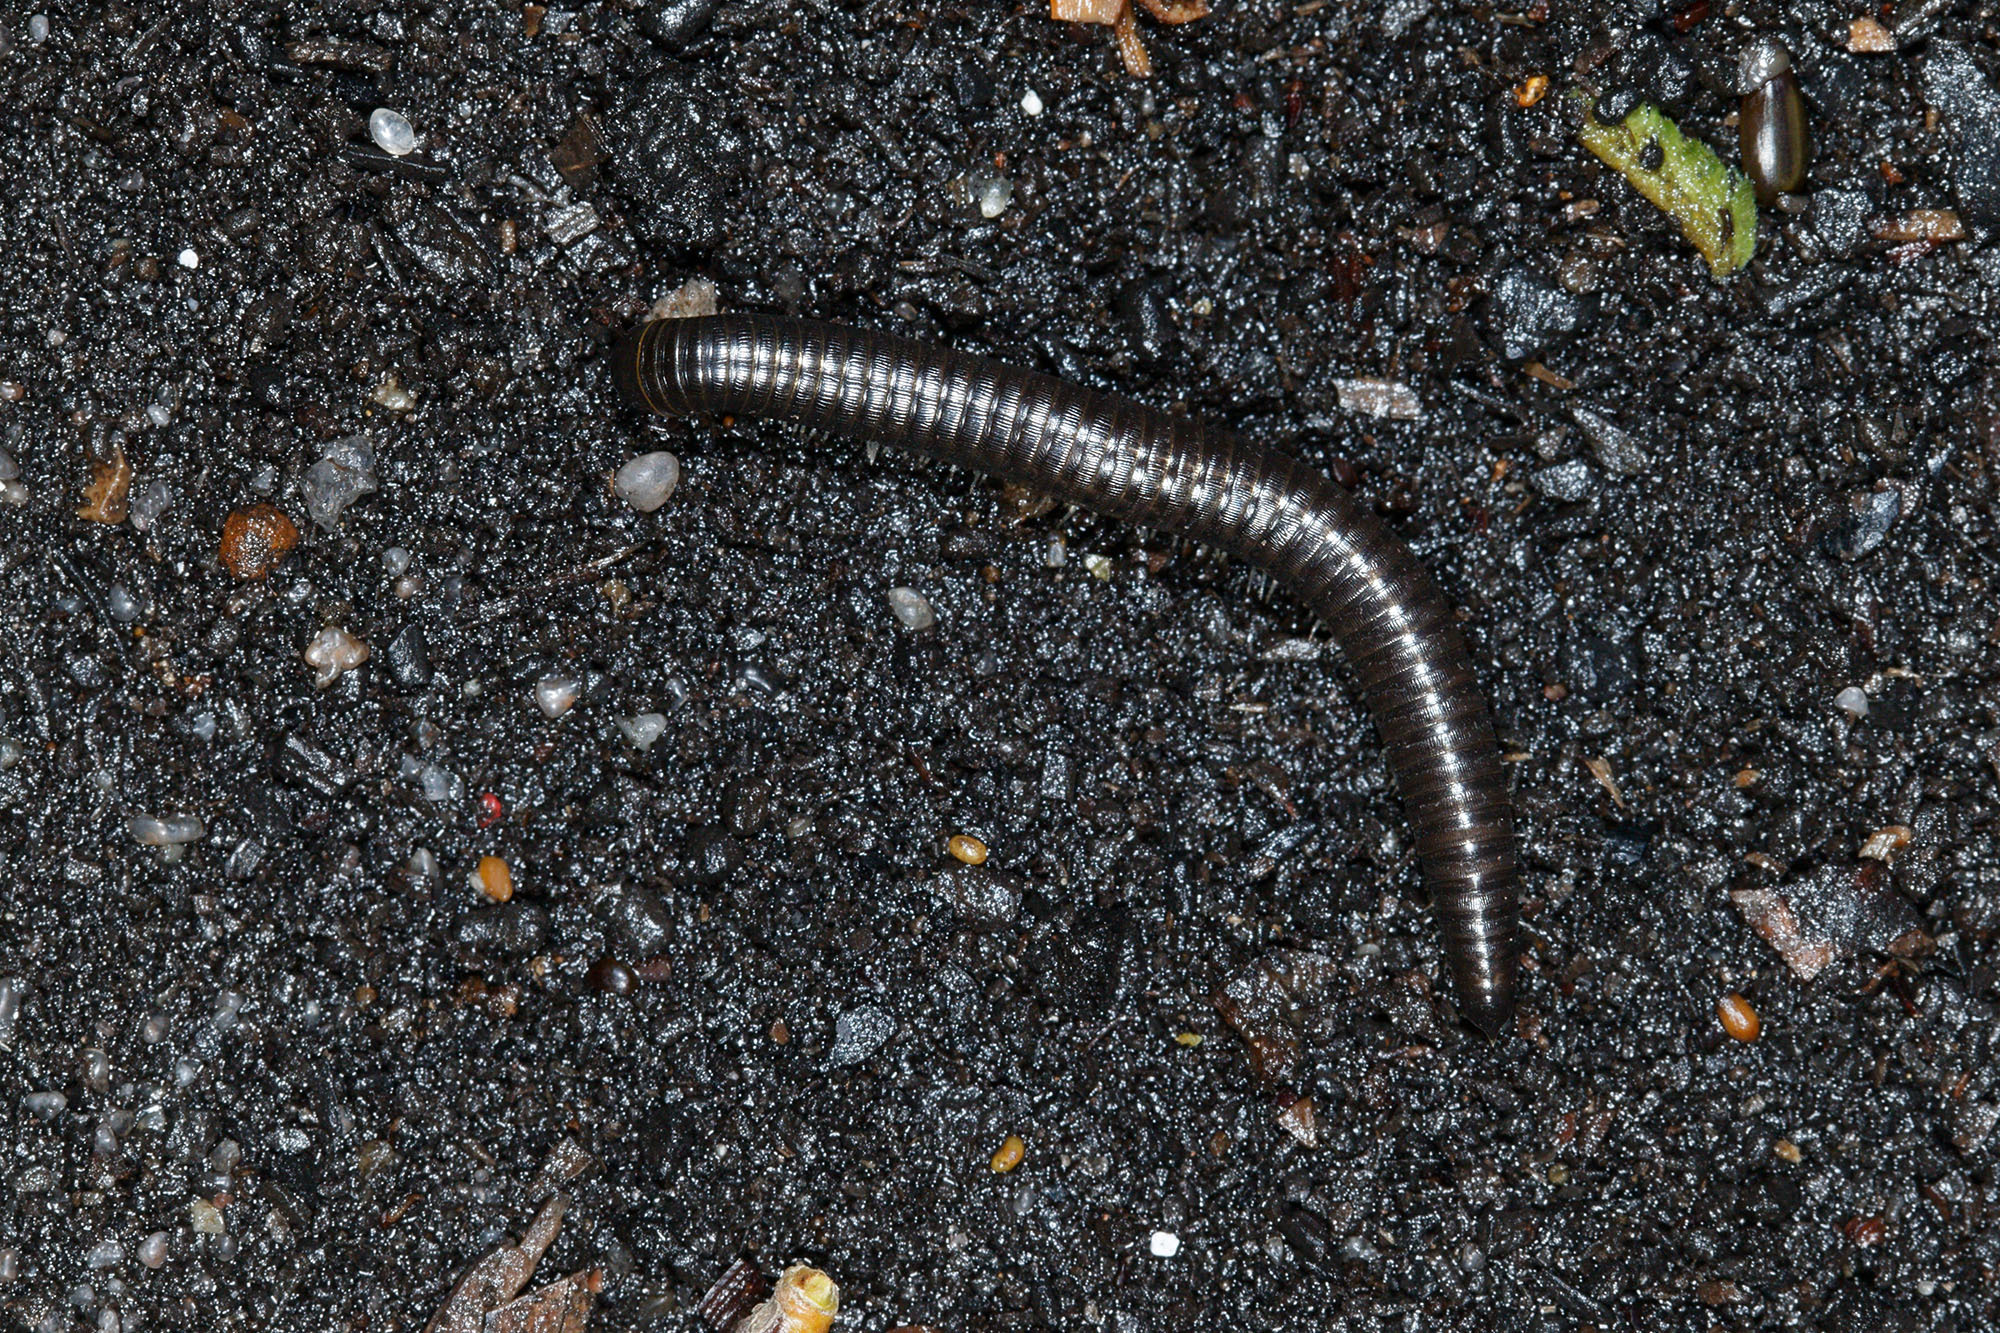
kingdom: Animalia
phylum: Arthropoda
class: Diplopoda
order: Julida
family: Julidae
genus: Ommatoiulus
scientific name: Ommatoiulus moreleti
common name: Portuguese millipede
